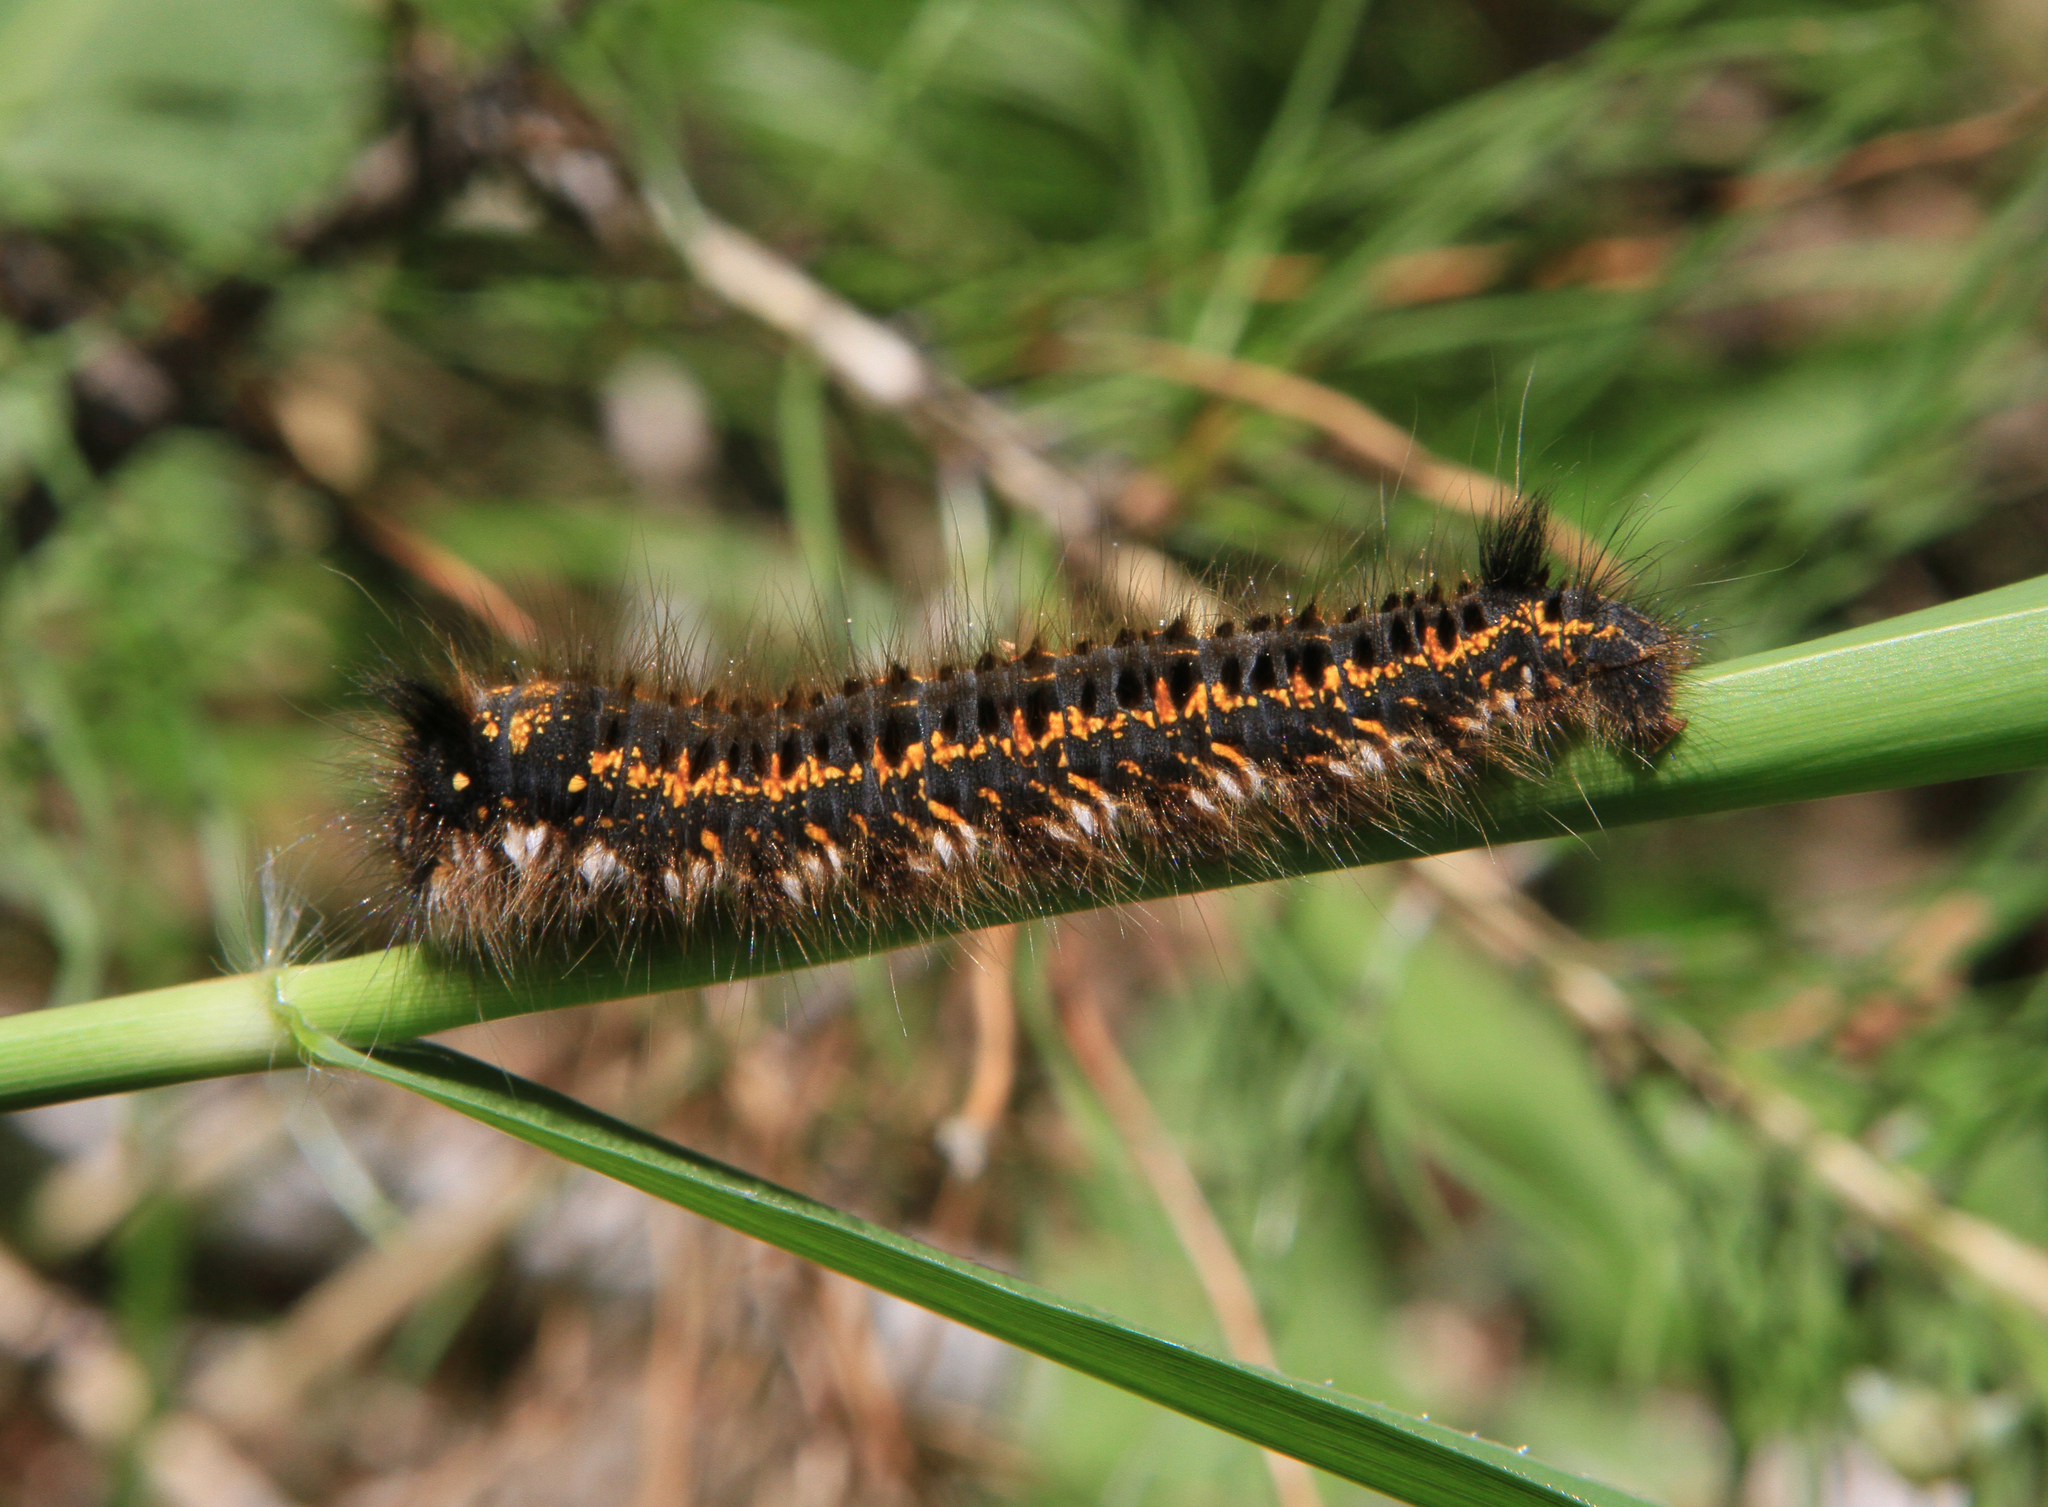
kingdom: Animalia
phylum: Arthropoda
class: Insecta
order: Lepidoptera
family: Lasiocampidae
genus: Euthrix
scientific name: Euthrix potatoria
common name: Drinker
